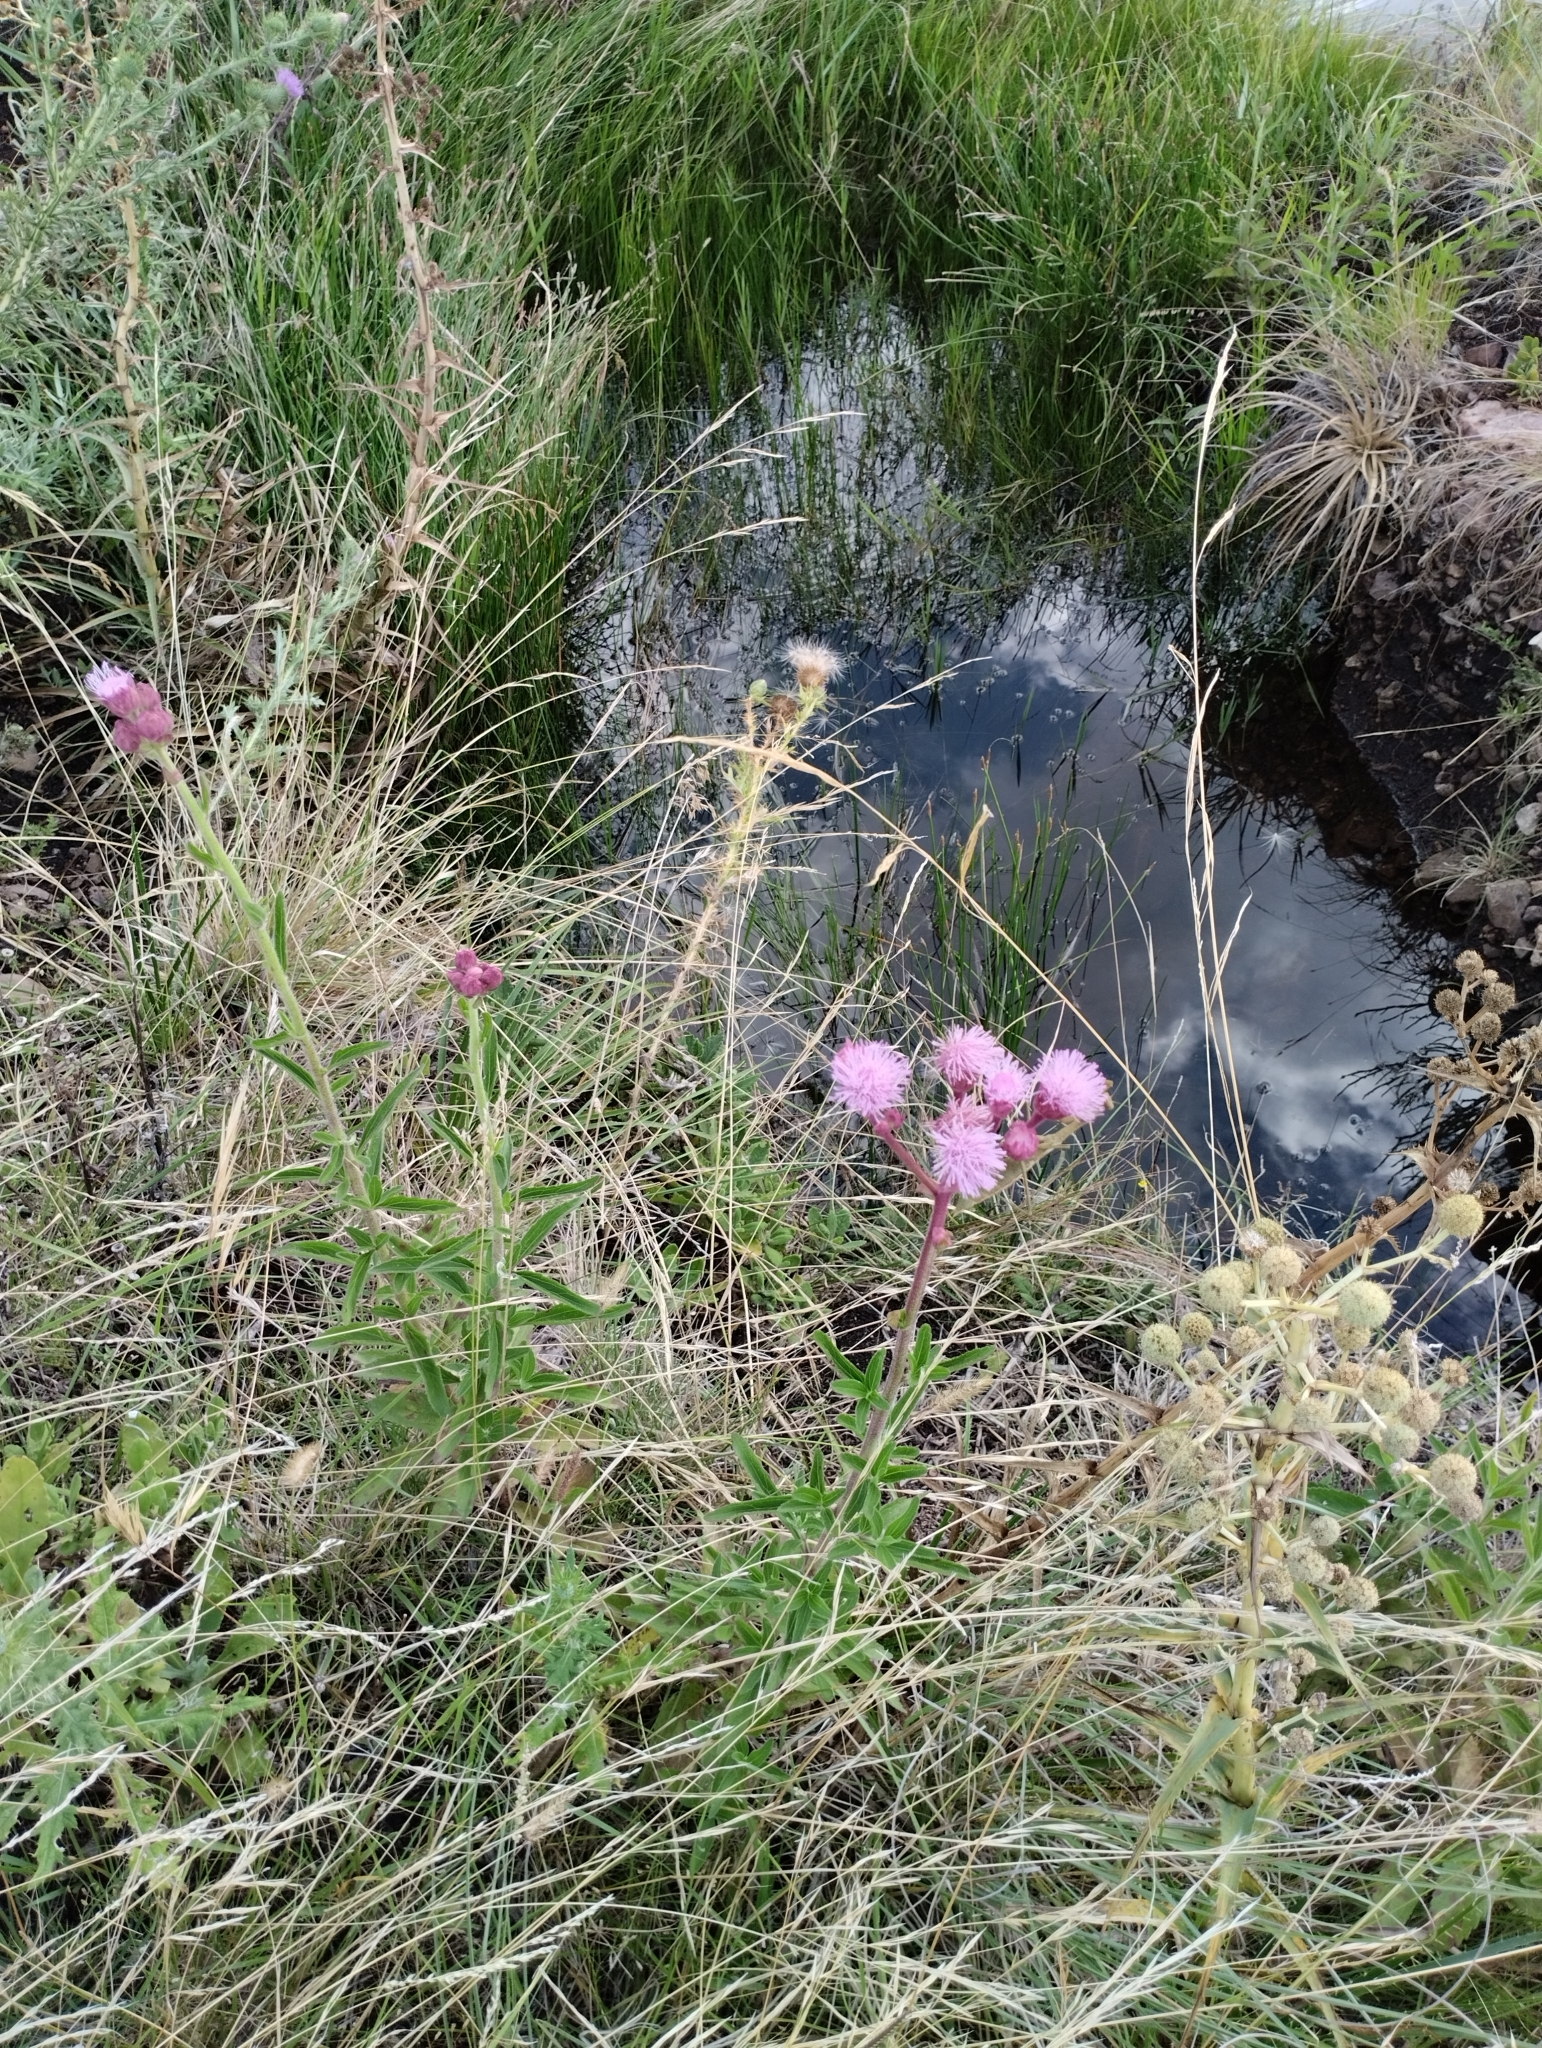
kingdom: Plantae
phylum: Tracheophyta
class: Magnoliopsida
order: Asterales
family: Asteraceae
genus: Campuloclinium
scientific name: Campuloclinium macrocephalum
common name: Pompomweed
